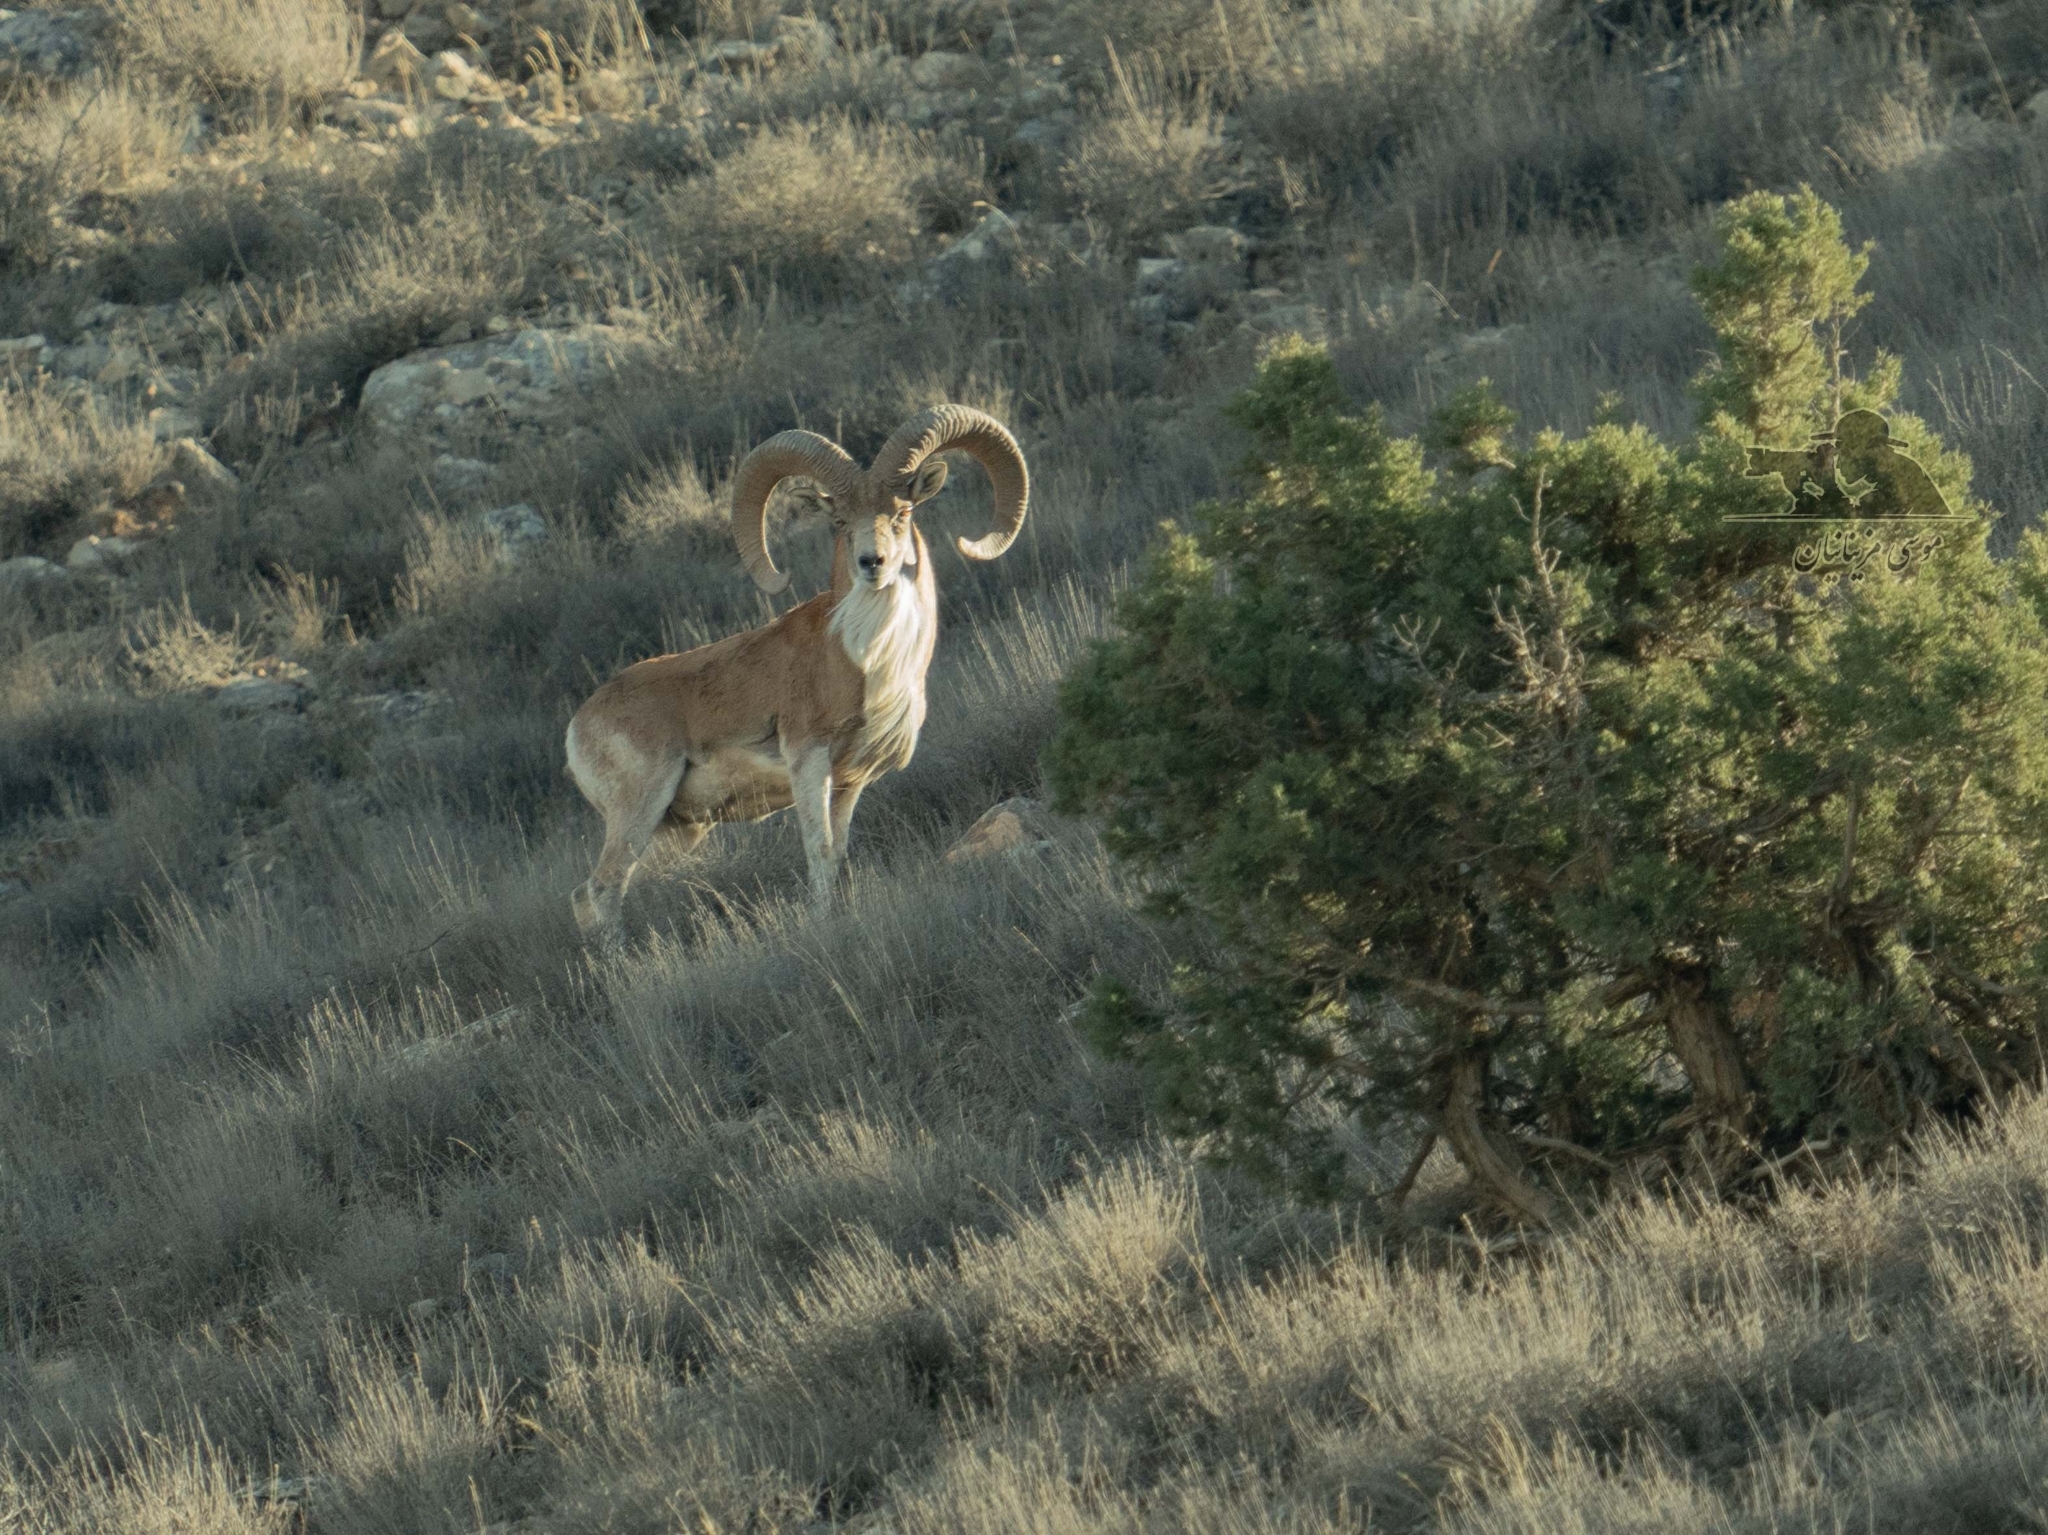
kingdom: Animalia
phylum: Chordata
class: Mammalia
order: Artiodactyla
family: Bovidae
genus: Ovis
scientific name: Ovis aries
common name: Domestic sheep
